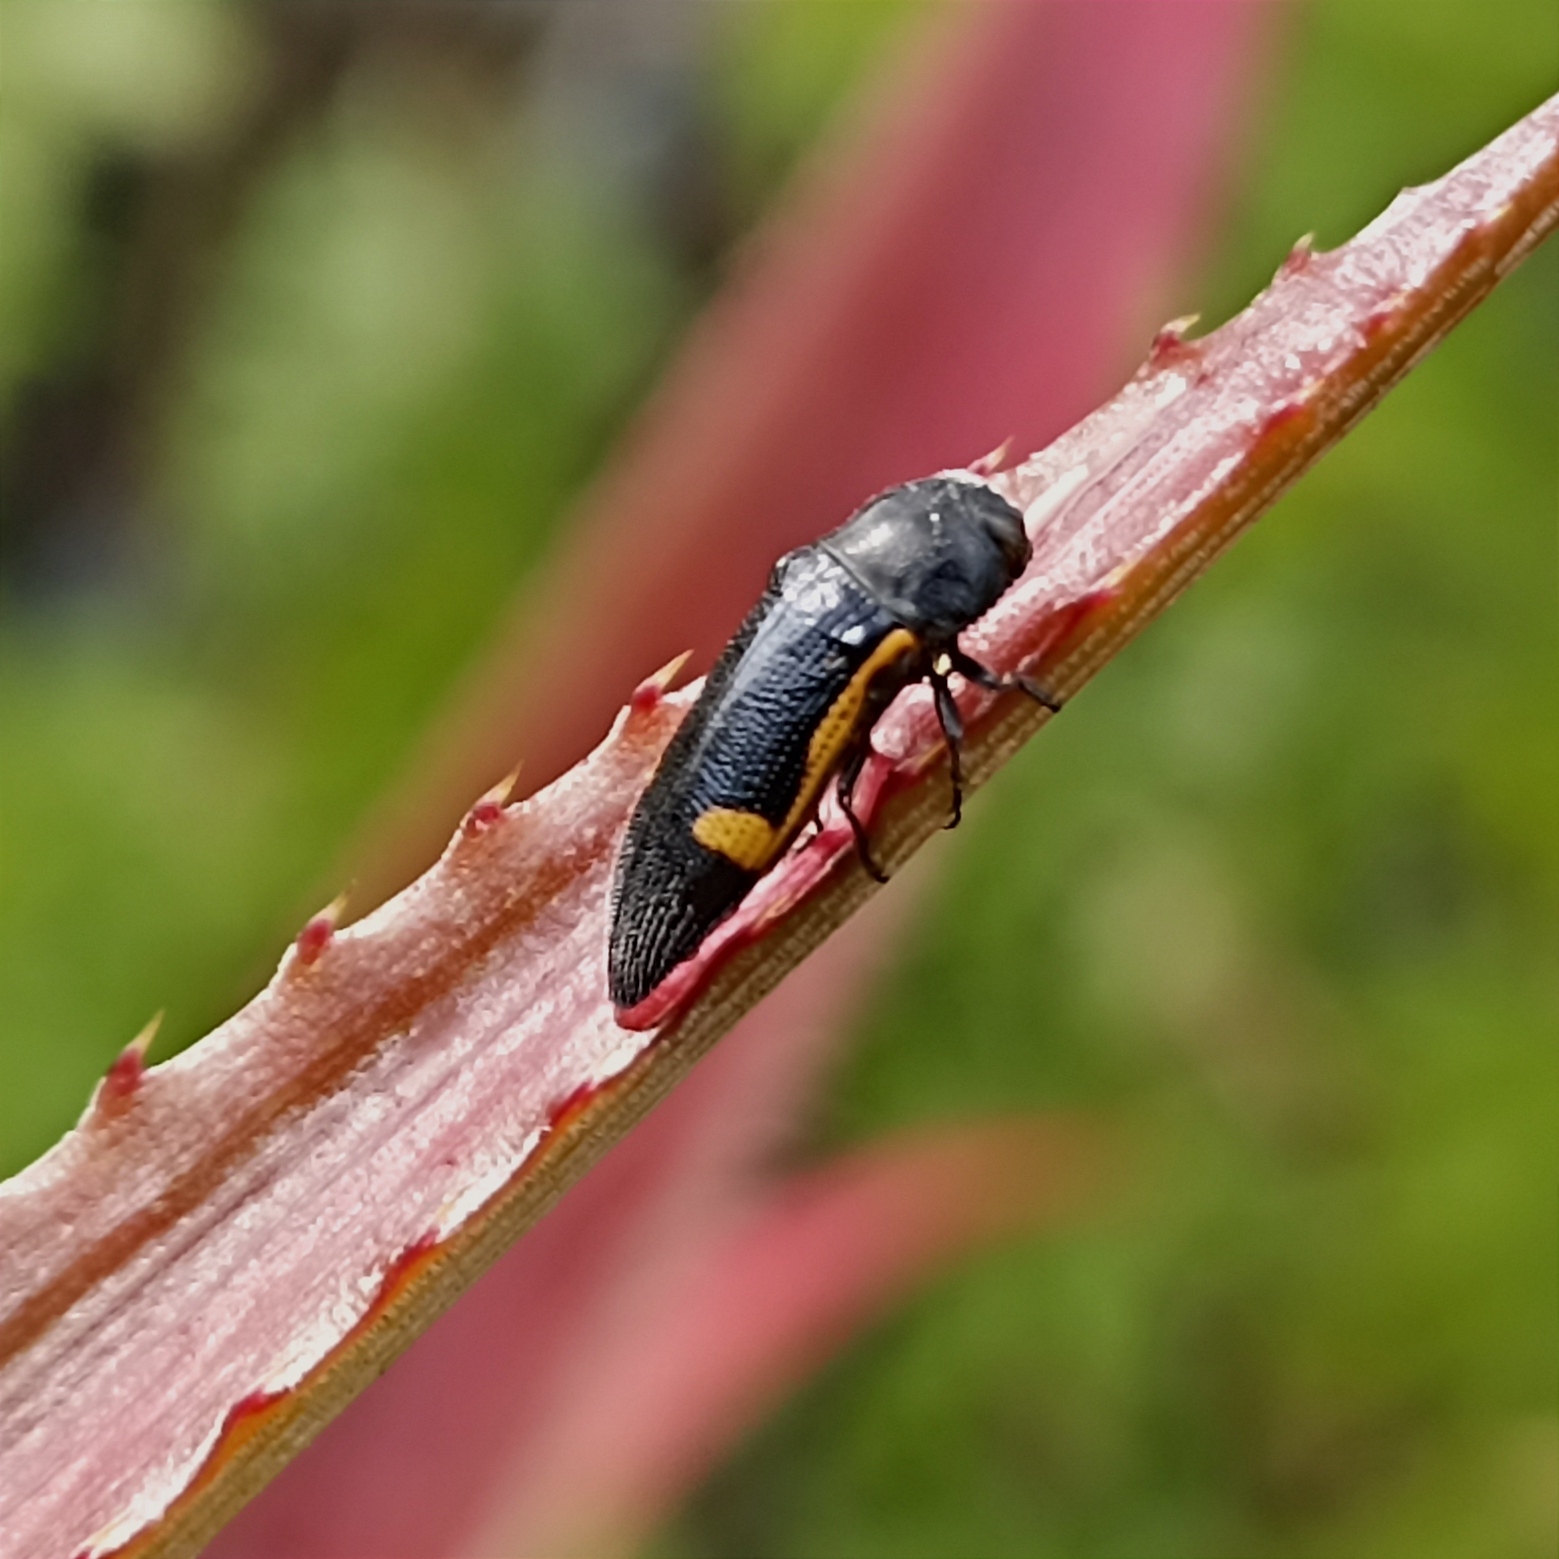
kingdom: Animalia
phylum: Arthropoda
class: Insecta
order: Coleoptera
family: Buprestidae
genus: Acmaeodera
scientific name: Acmaeodera stictipennis
